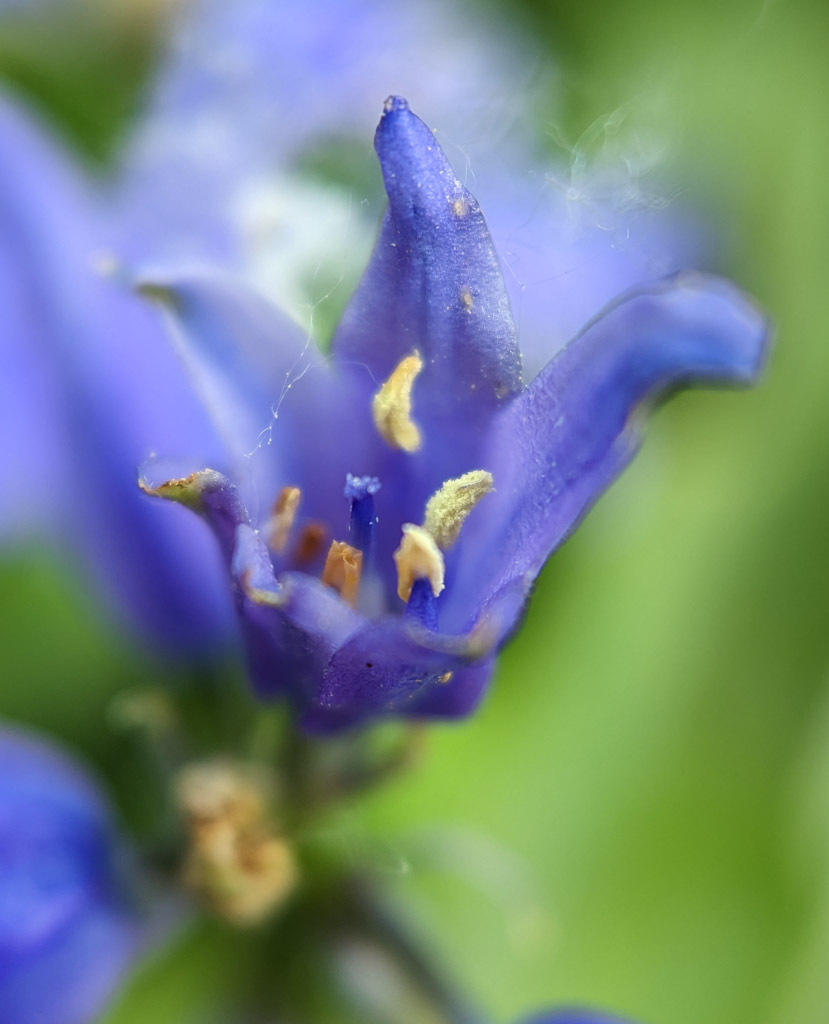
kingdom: Plantae
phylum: Tracheophyta
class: Liliopsida
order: Asparagales
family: Asparagaceae
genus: Hyacinthoides
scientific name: Hyacinthoides non-scripta
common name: Bluebell
